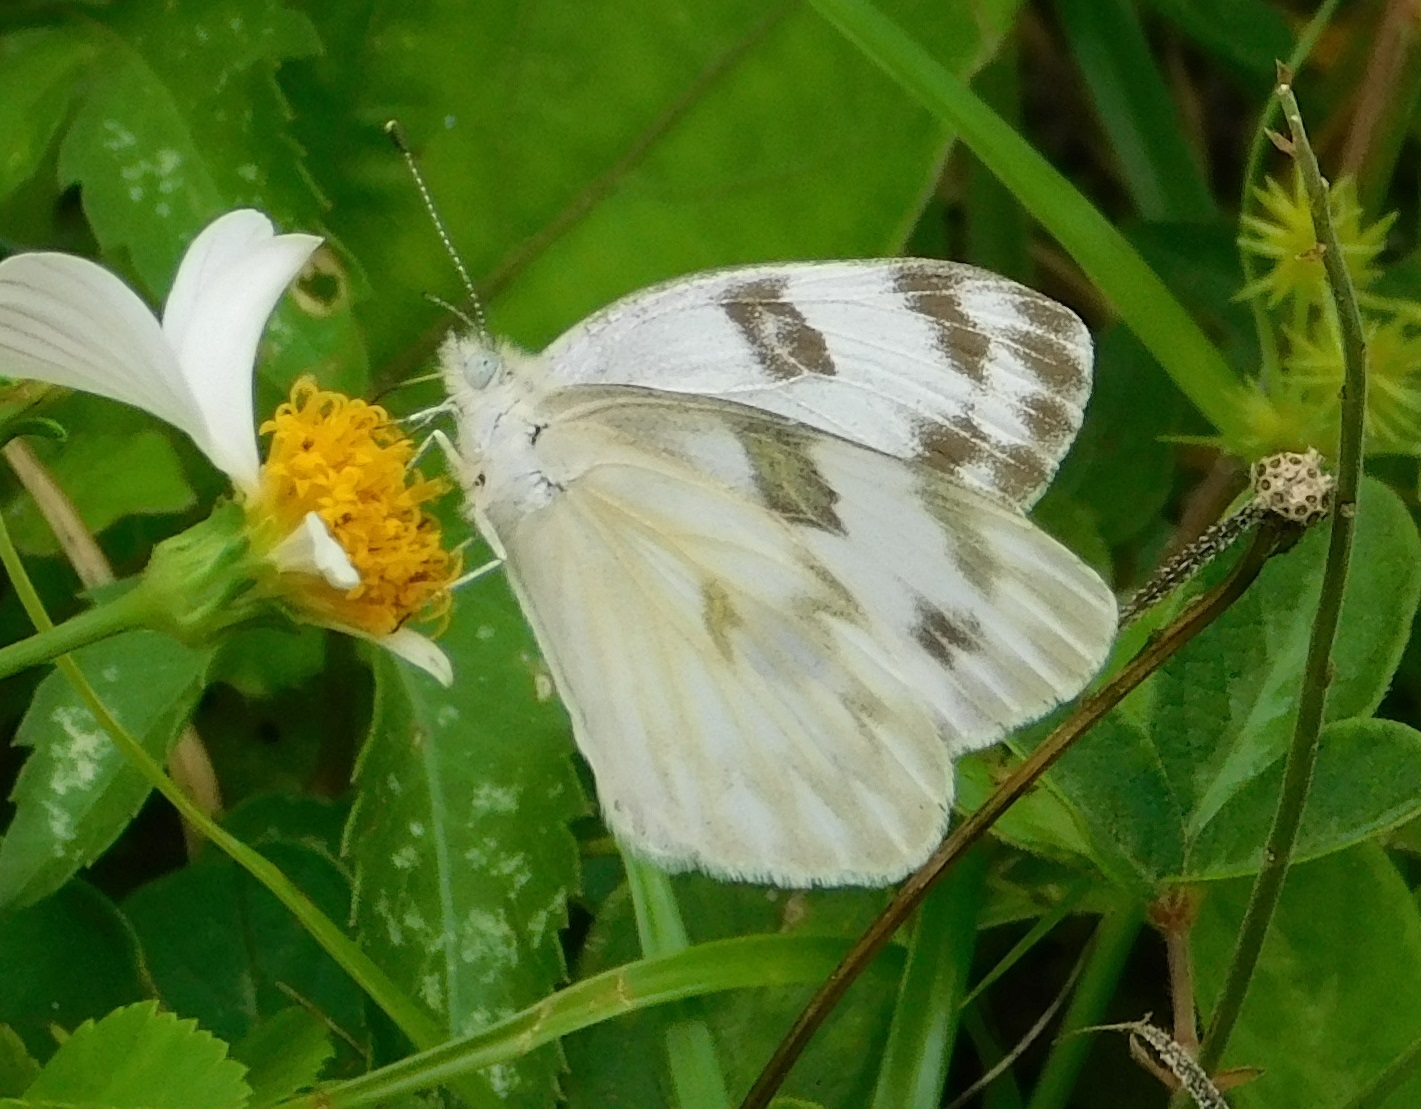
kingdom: Animalia
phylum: Arthropoda
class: Insecta
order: Lepidoptera
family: Pieridae
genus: Pontia
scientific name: Pontia protodice
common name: Checkered white
